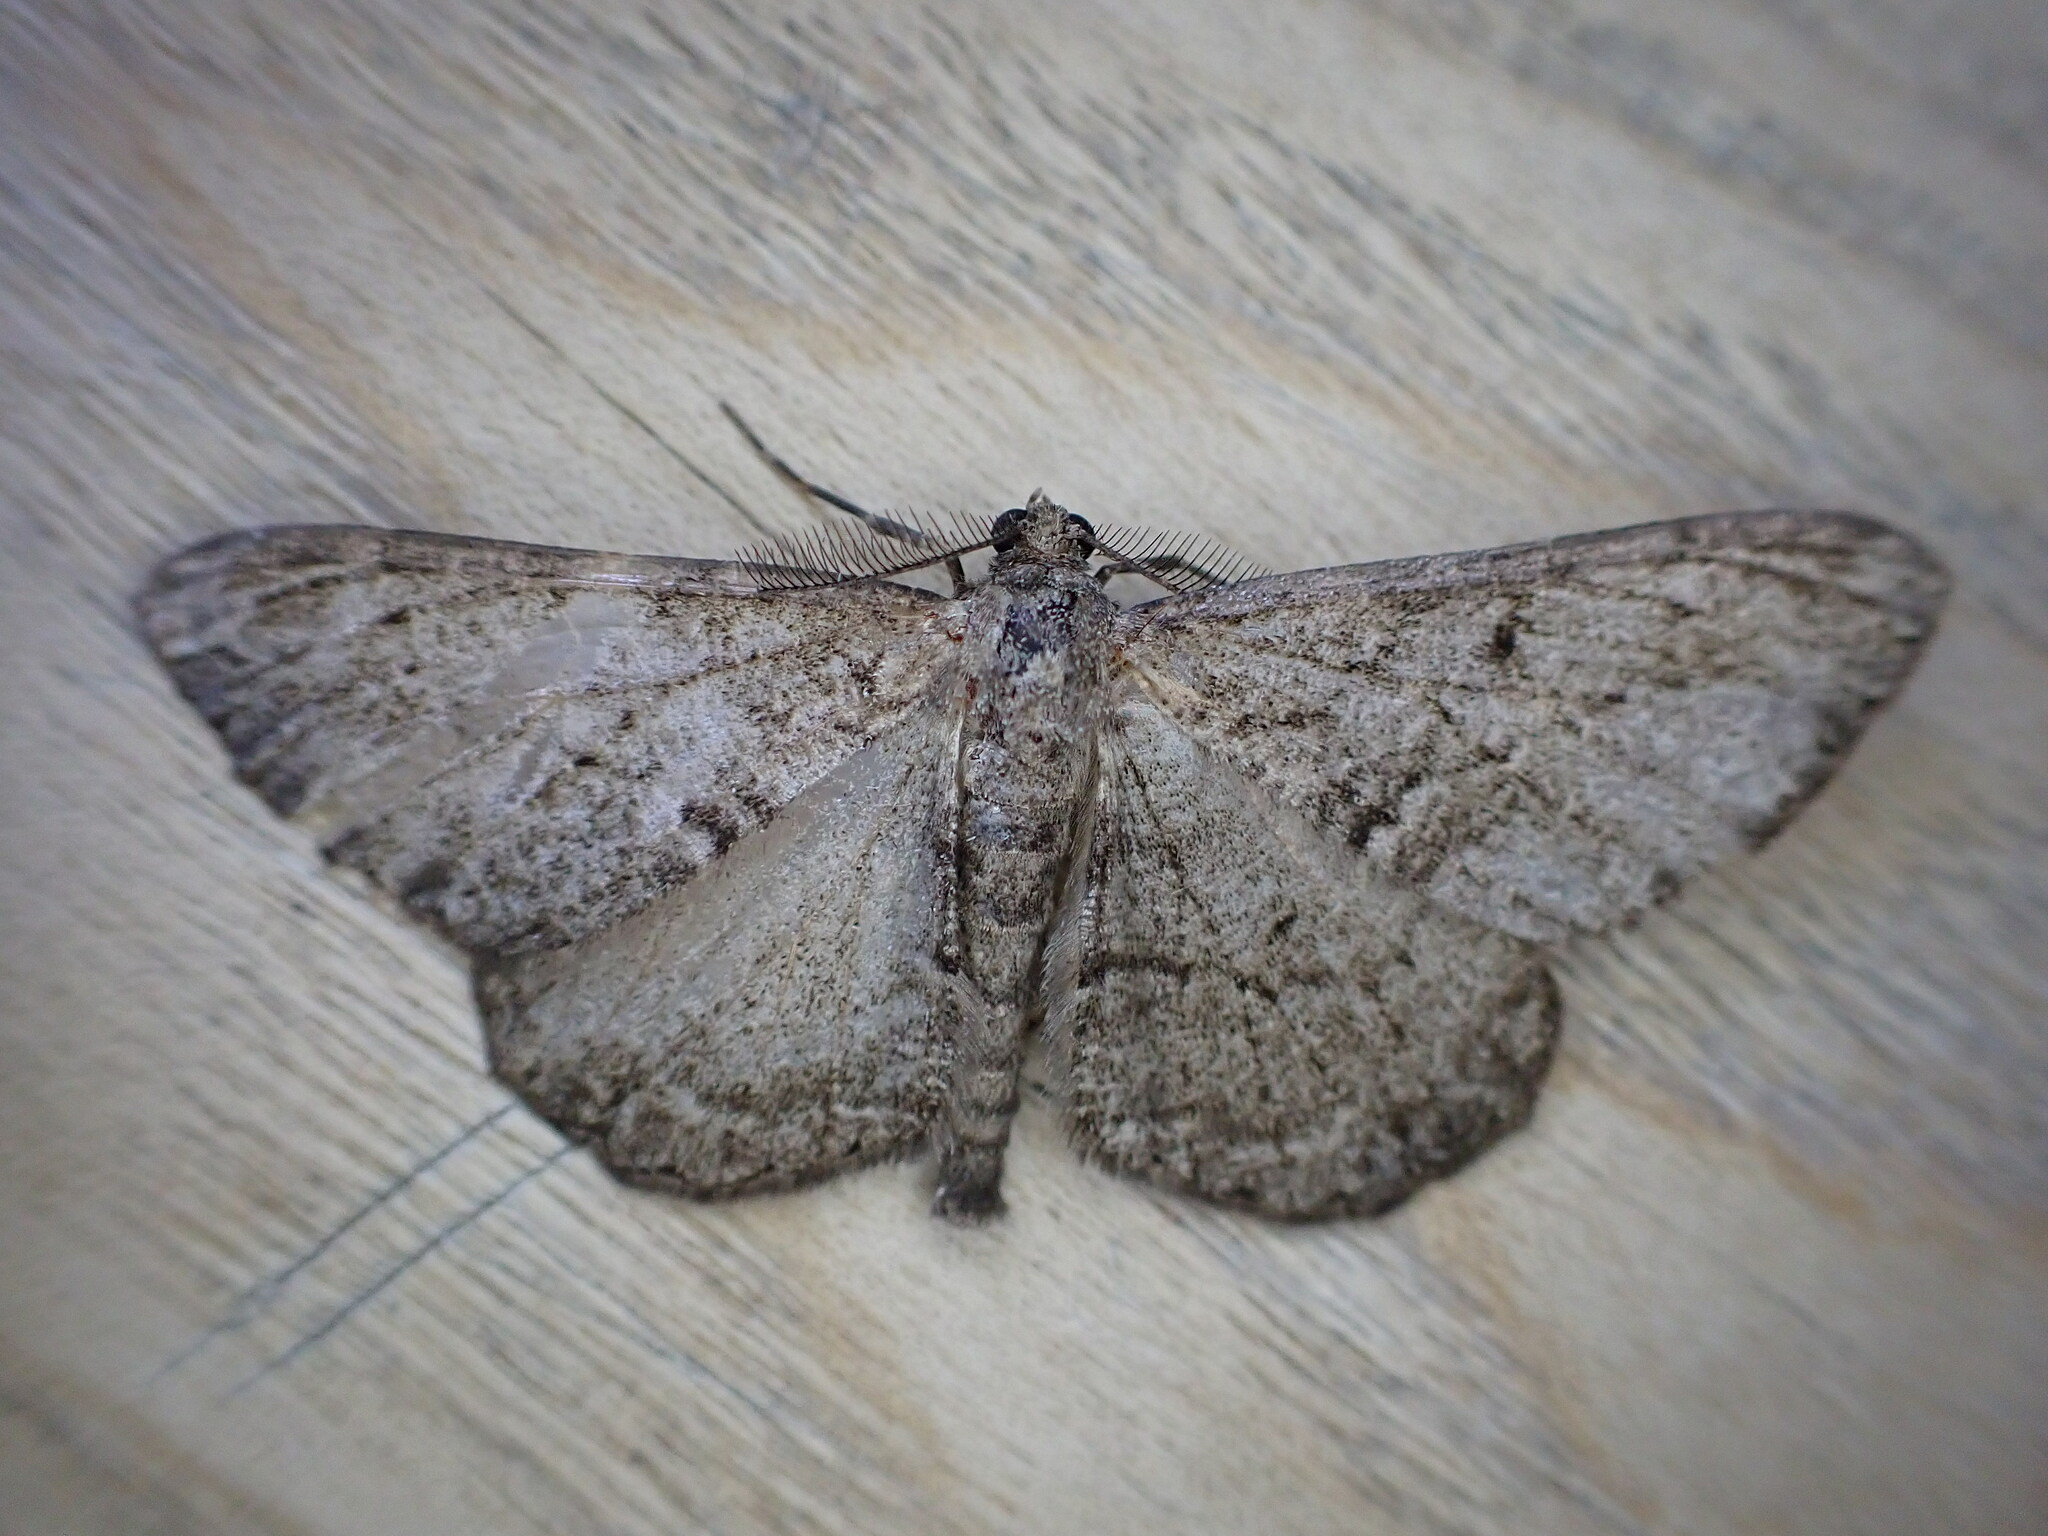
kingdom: Animalia
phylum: Arthropoda
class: Insecta
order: Lepidoptera
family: Geometridae
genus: Peribatodes
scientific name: Peribatodes rhomboidaria
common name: Willow beauty
